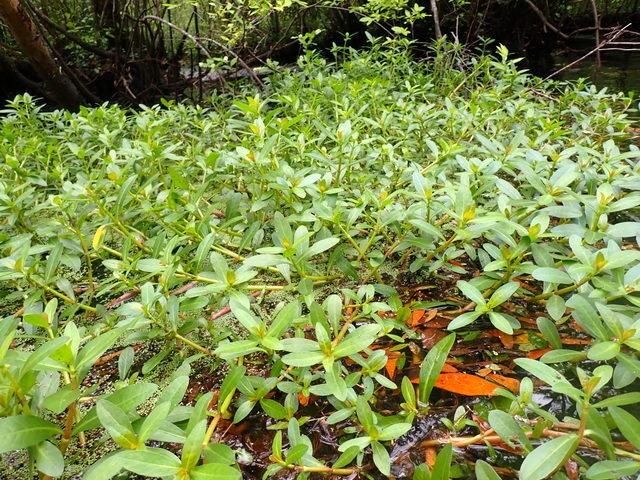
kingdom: Plantae
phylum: Tracheophyta
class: Magnoliopsida
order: Caryophyllales
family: Amaranthaceae
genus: Alternanthera
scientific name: Alternanthera philoxeroides
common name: Alligatorweed
